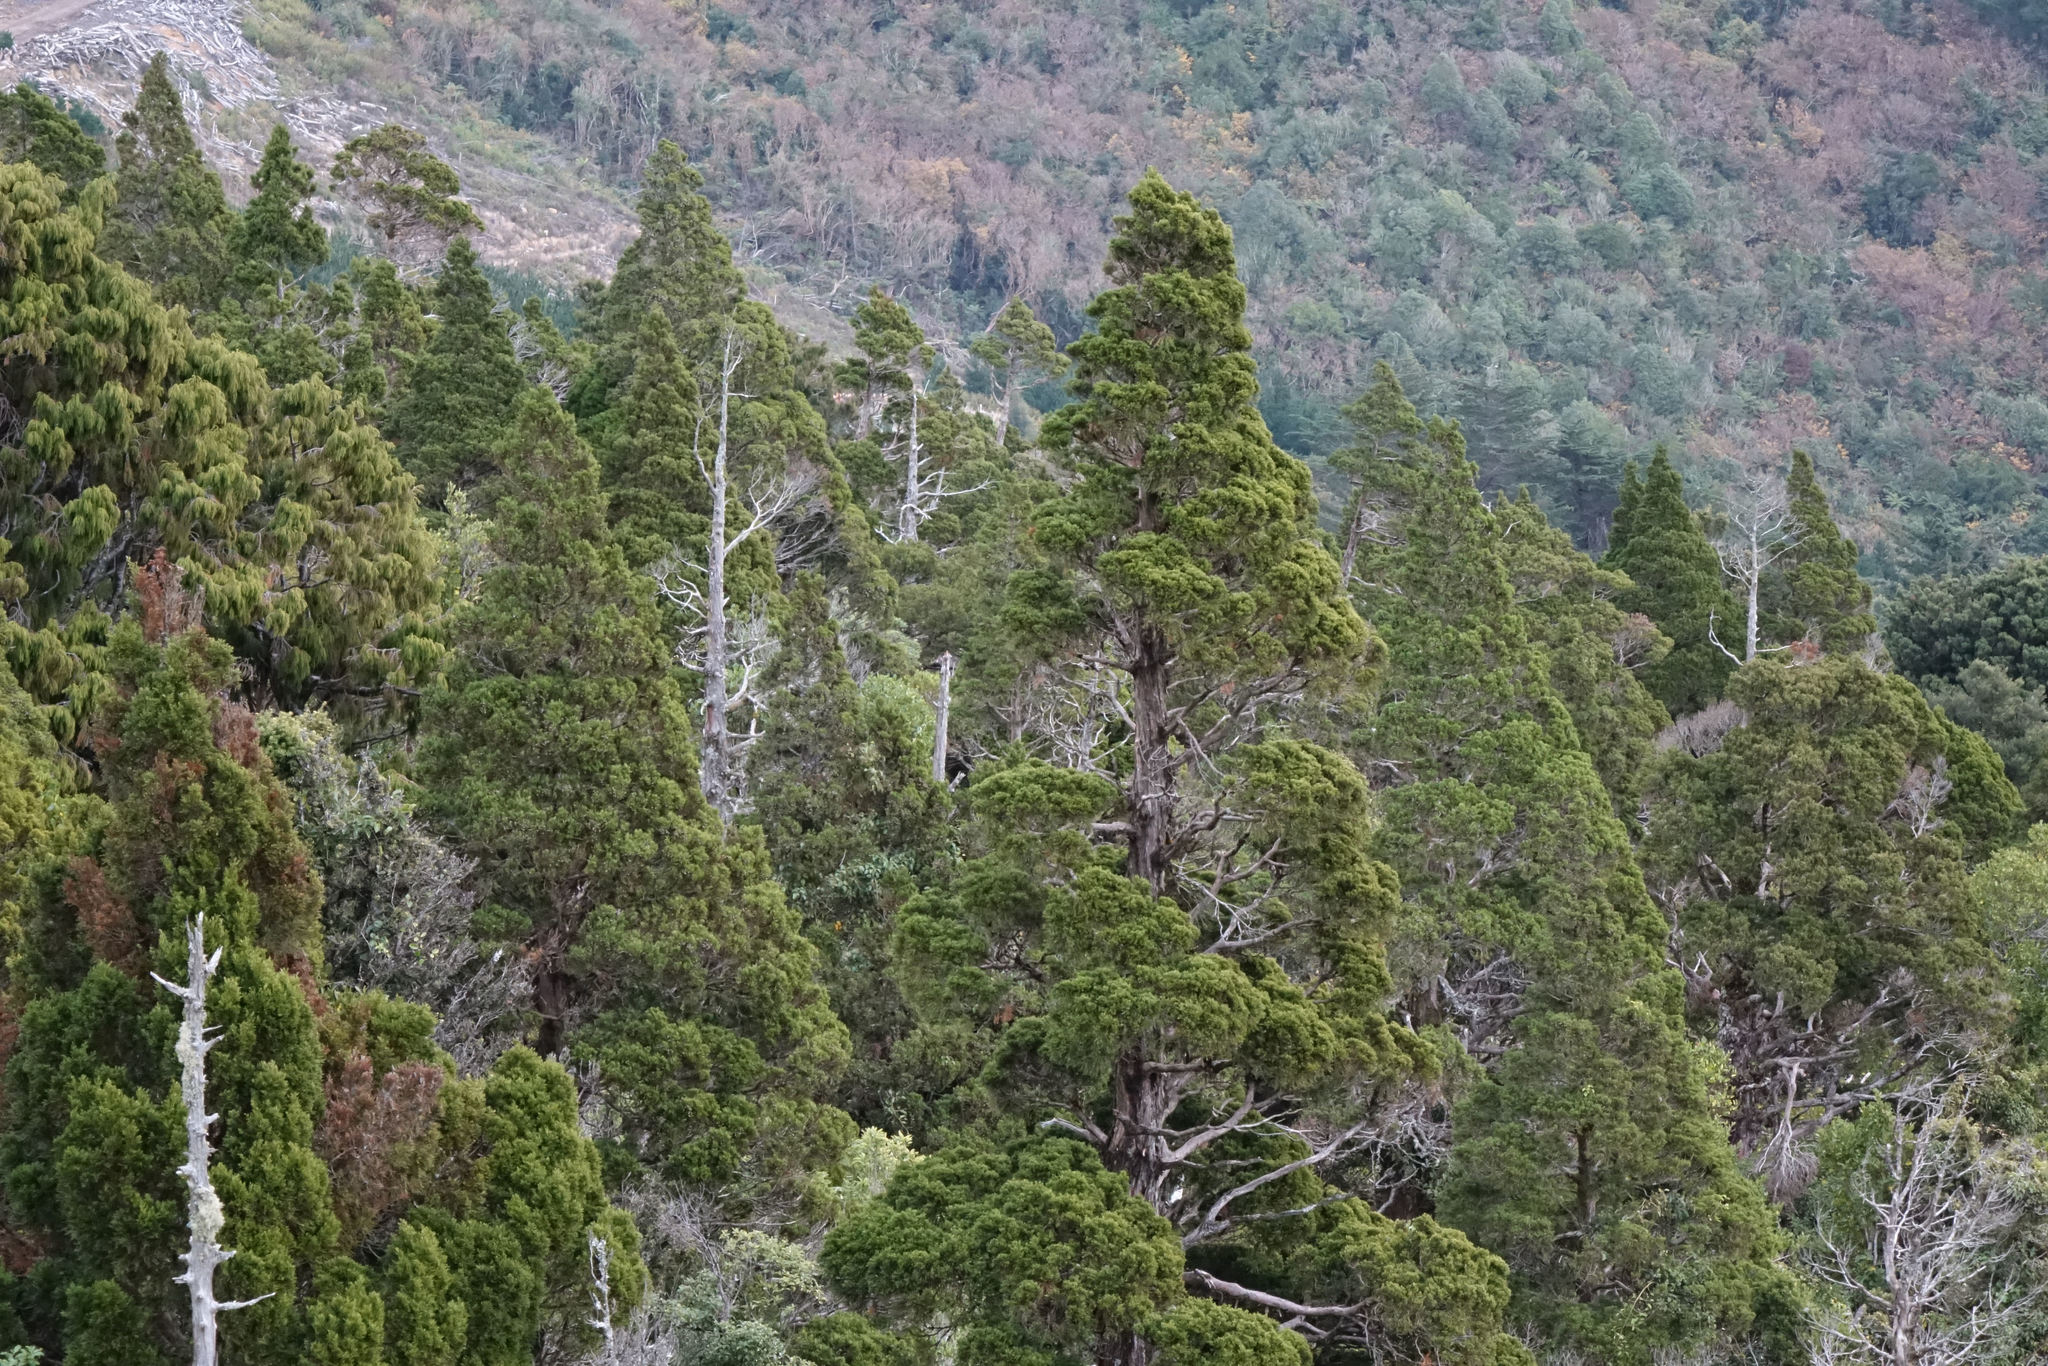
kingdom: Plantae
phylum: Tracheophyta
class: Pinopsida
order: Pinales
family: Cupressaceae
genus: Libocedrus
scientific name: Libocedrus bidwillii
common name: Cedar
